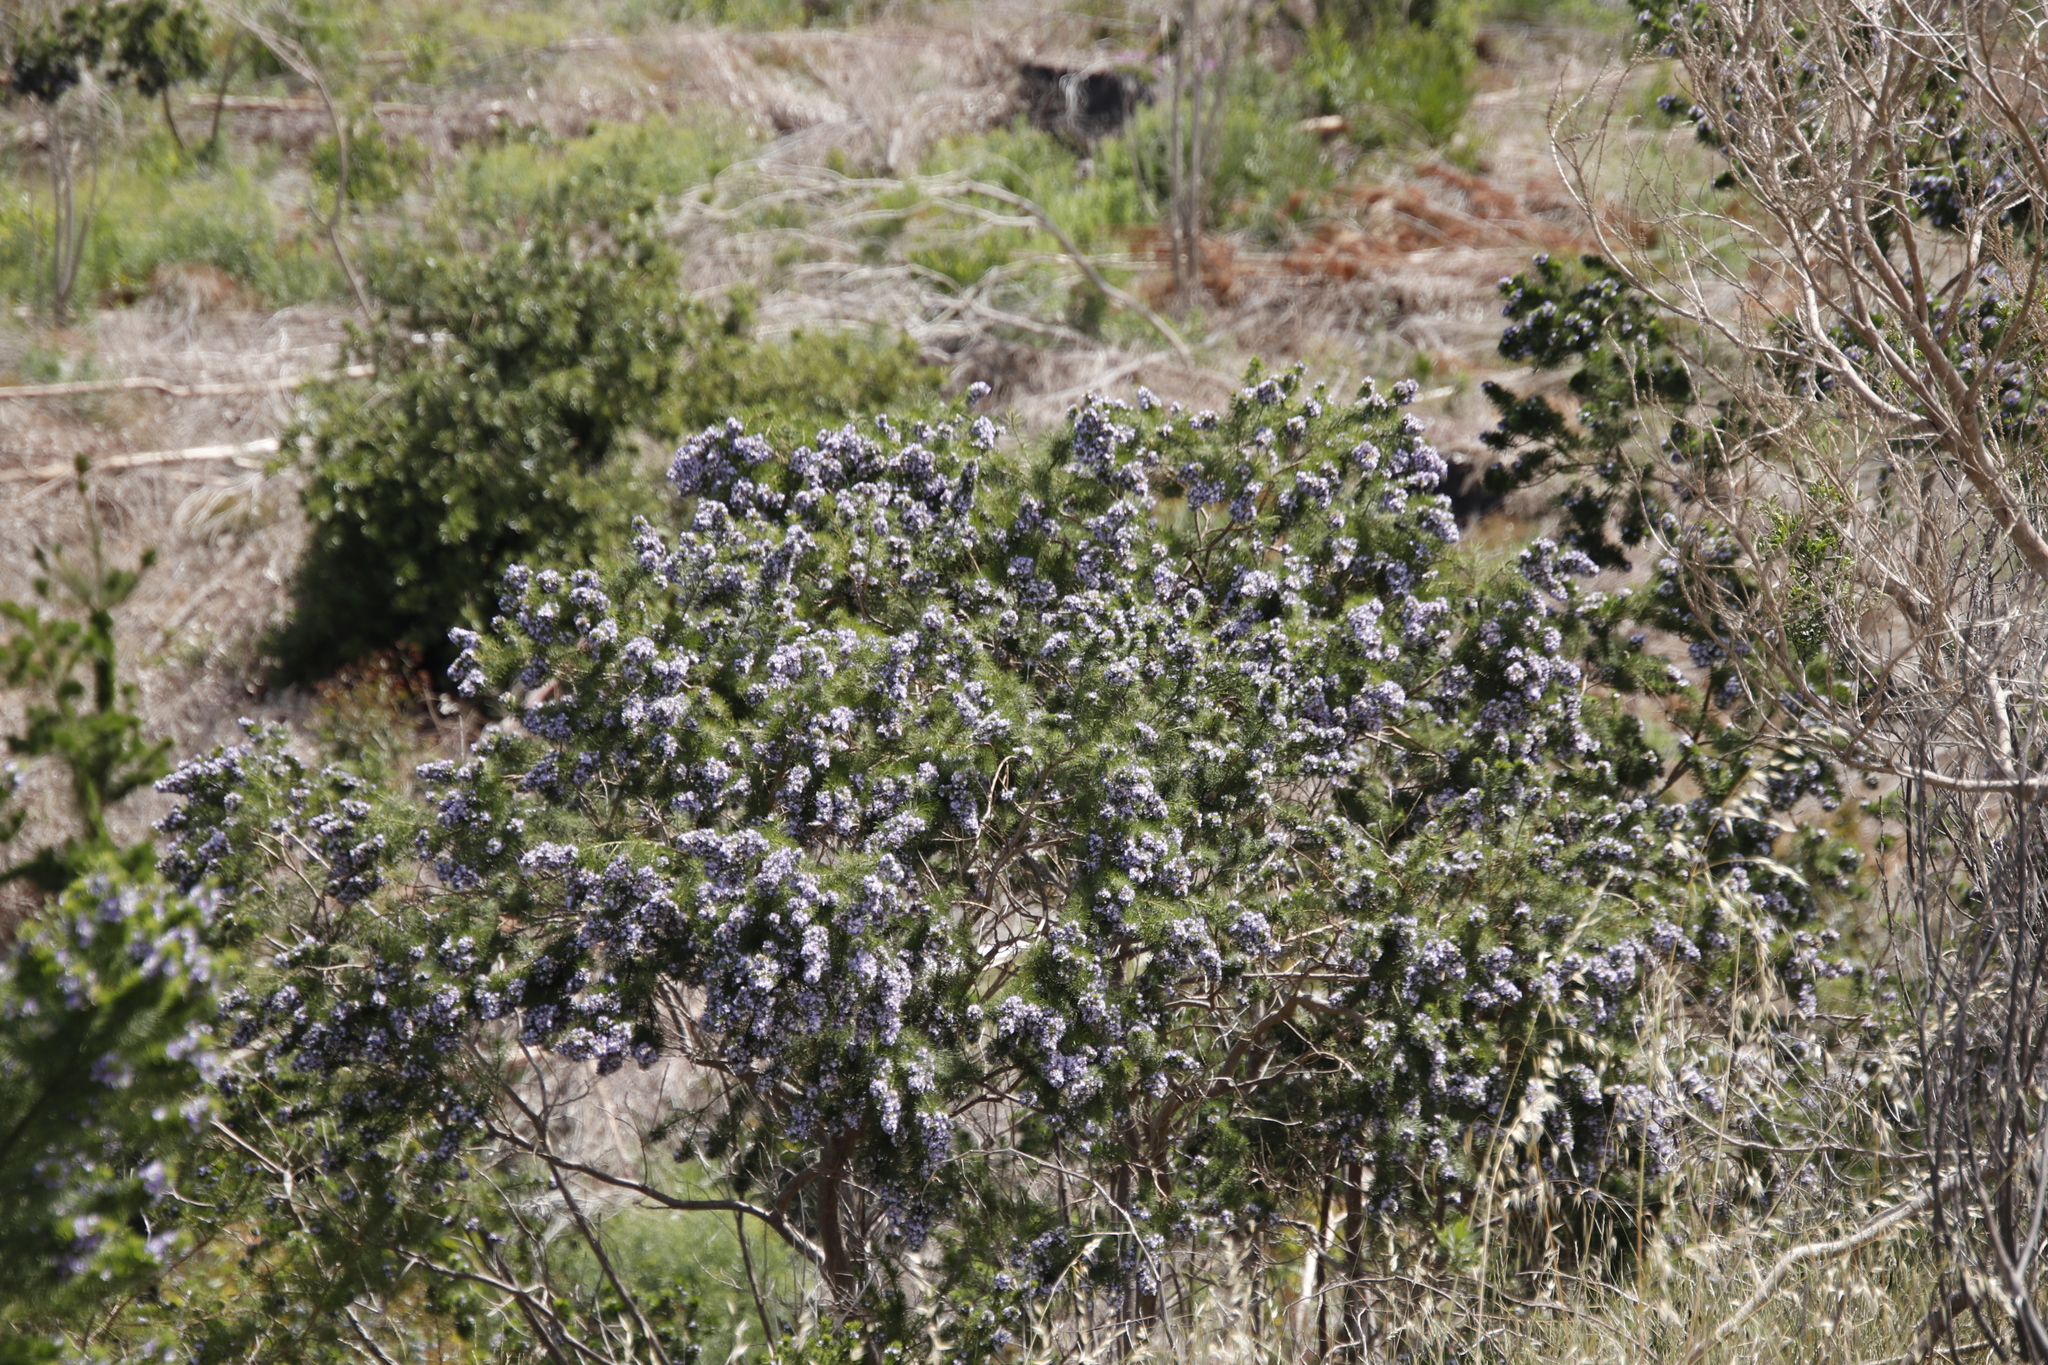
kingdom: Plantae
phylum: Tracheophyta
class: Magnoliopsida
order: Fabales
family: Fabaceae
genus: Psoralea
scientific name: Psoralea pinnata
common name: African scurfpea
